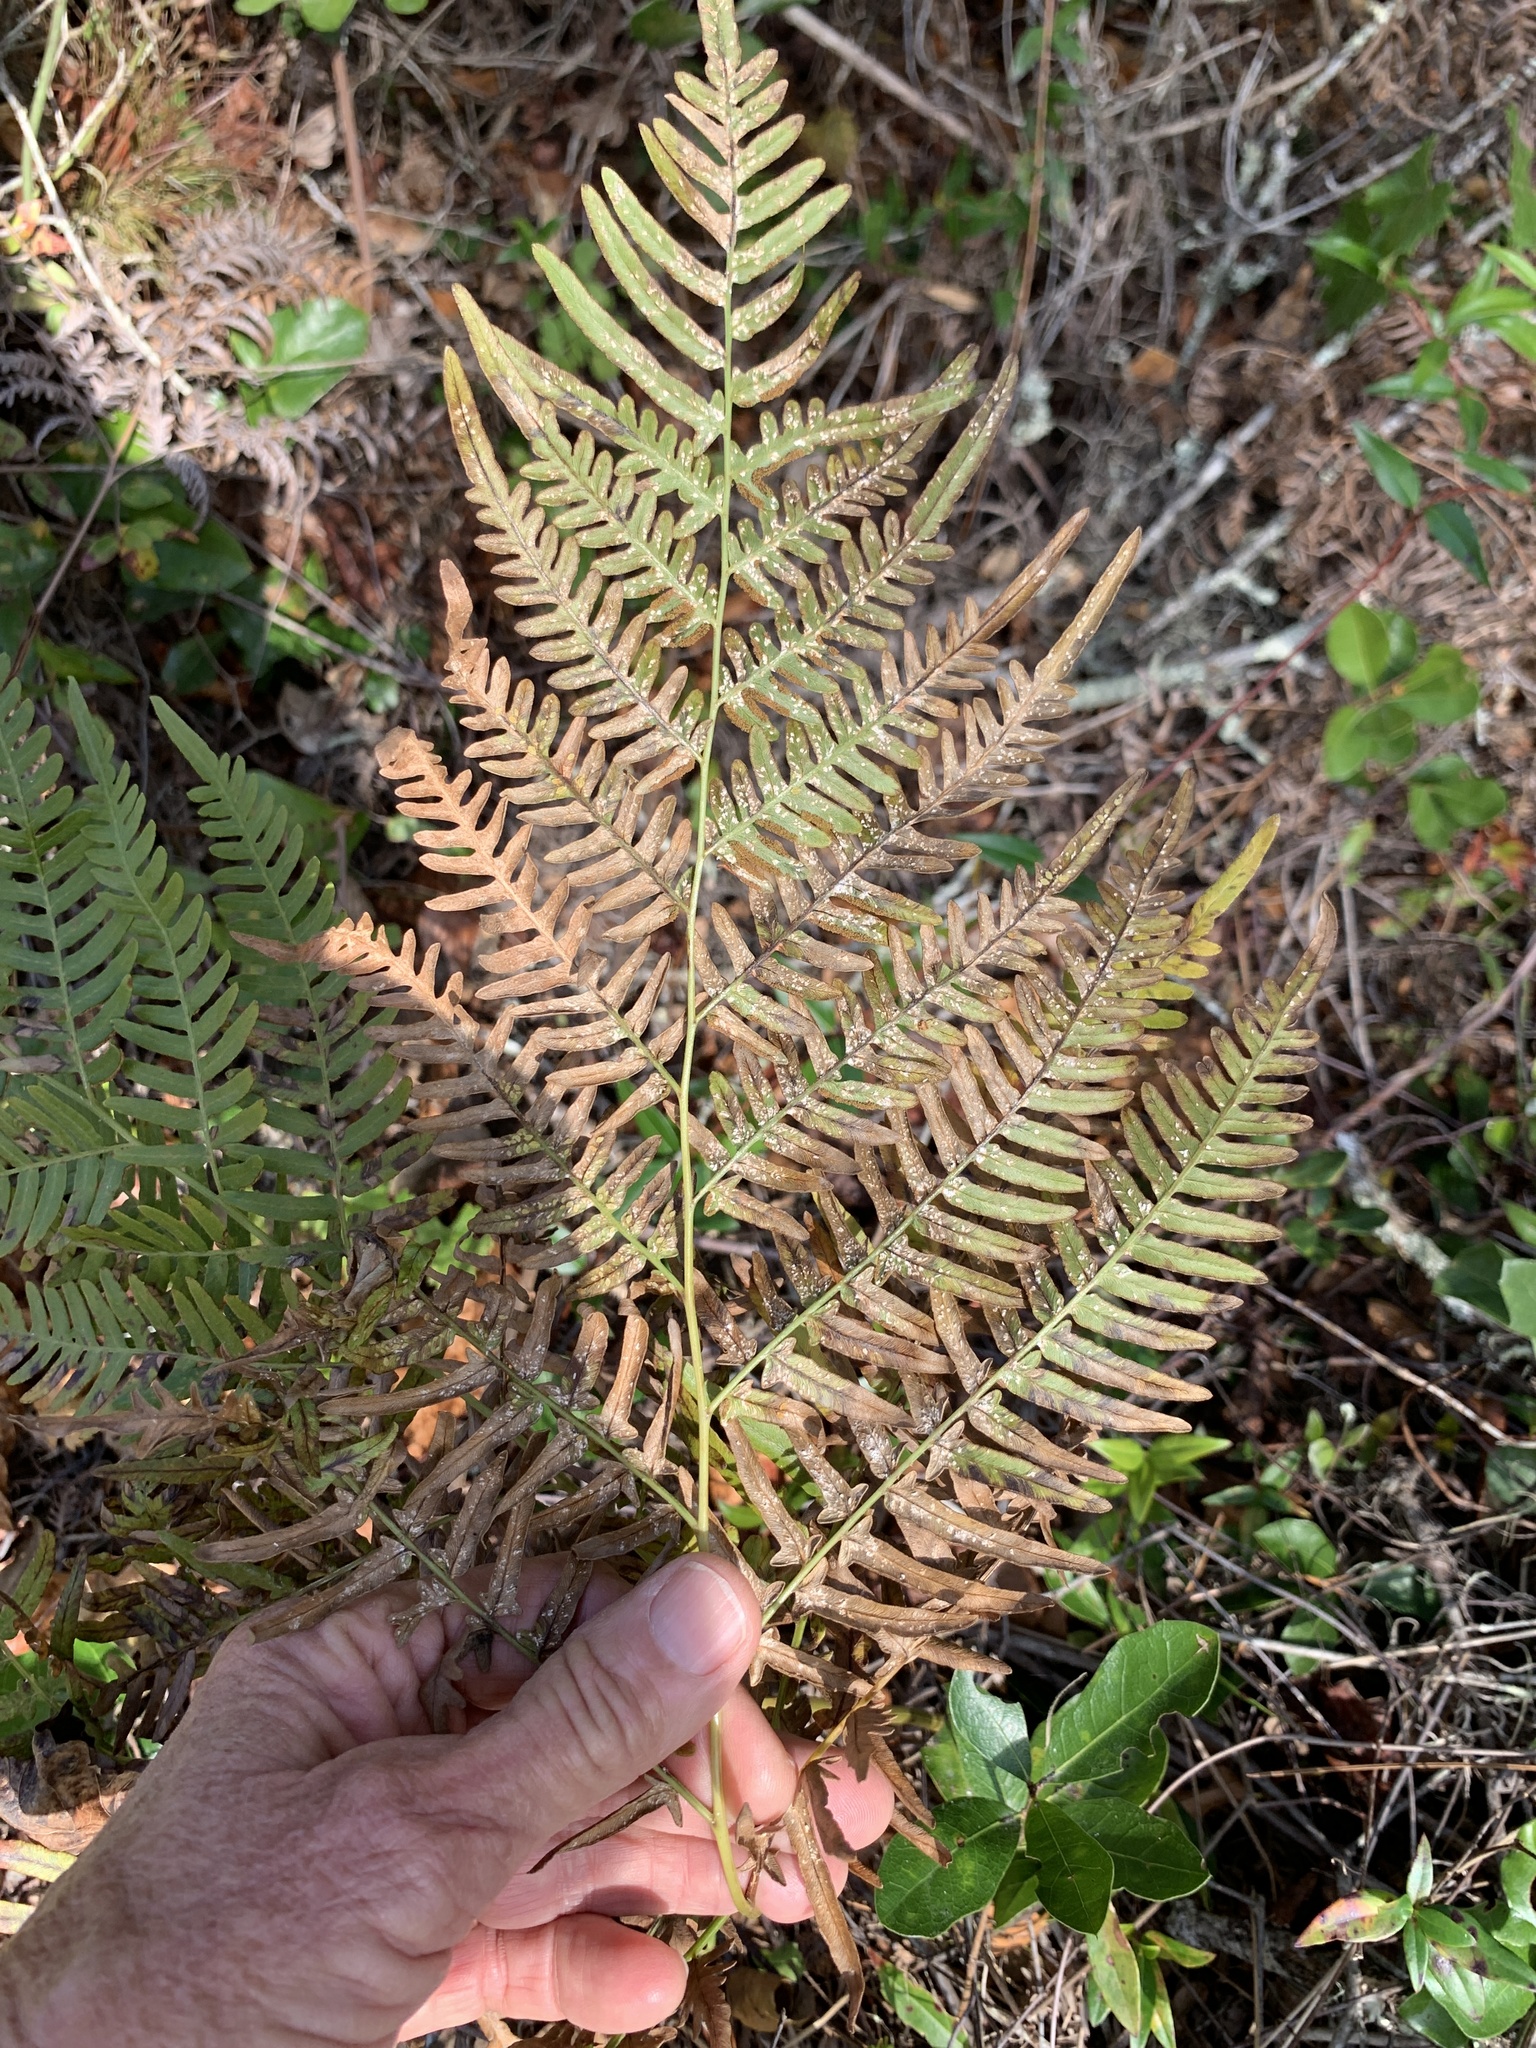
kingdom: Plantae
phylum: Tracheophyta
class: Polypodiopsida
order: Polypodiales
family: Dennstaedtiaceae
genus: Pteridium
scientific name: Pteridium
